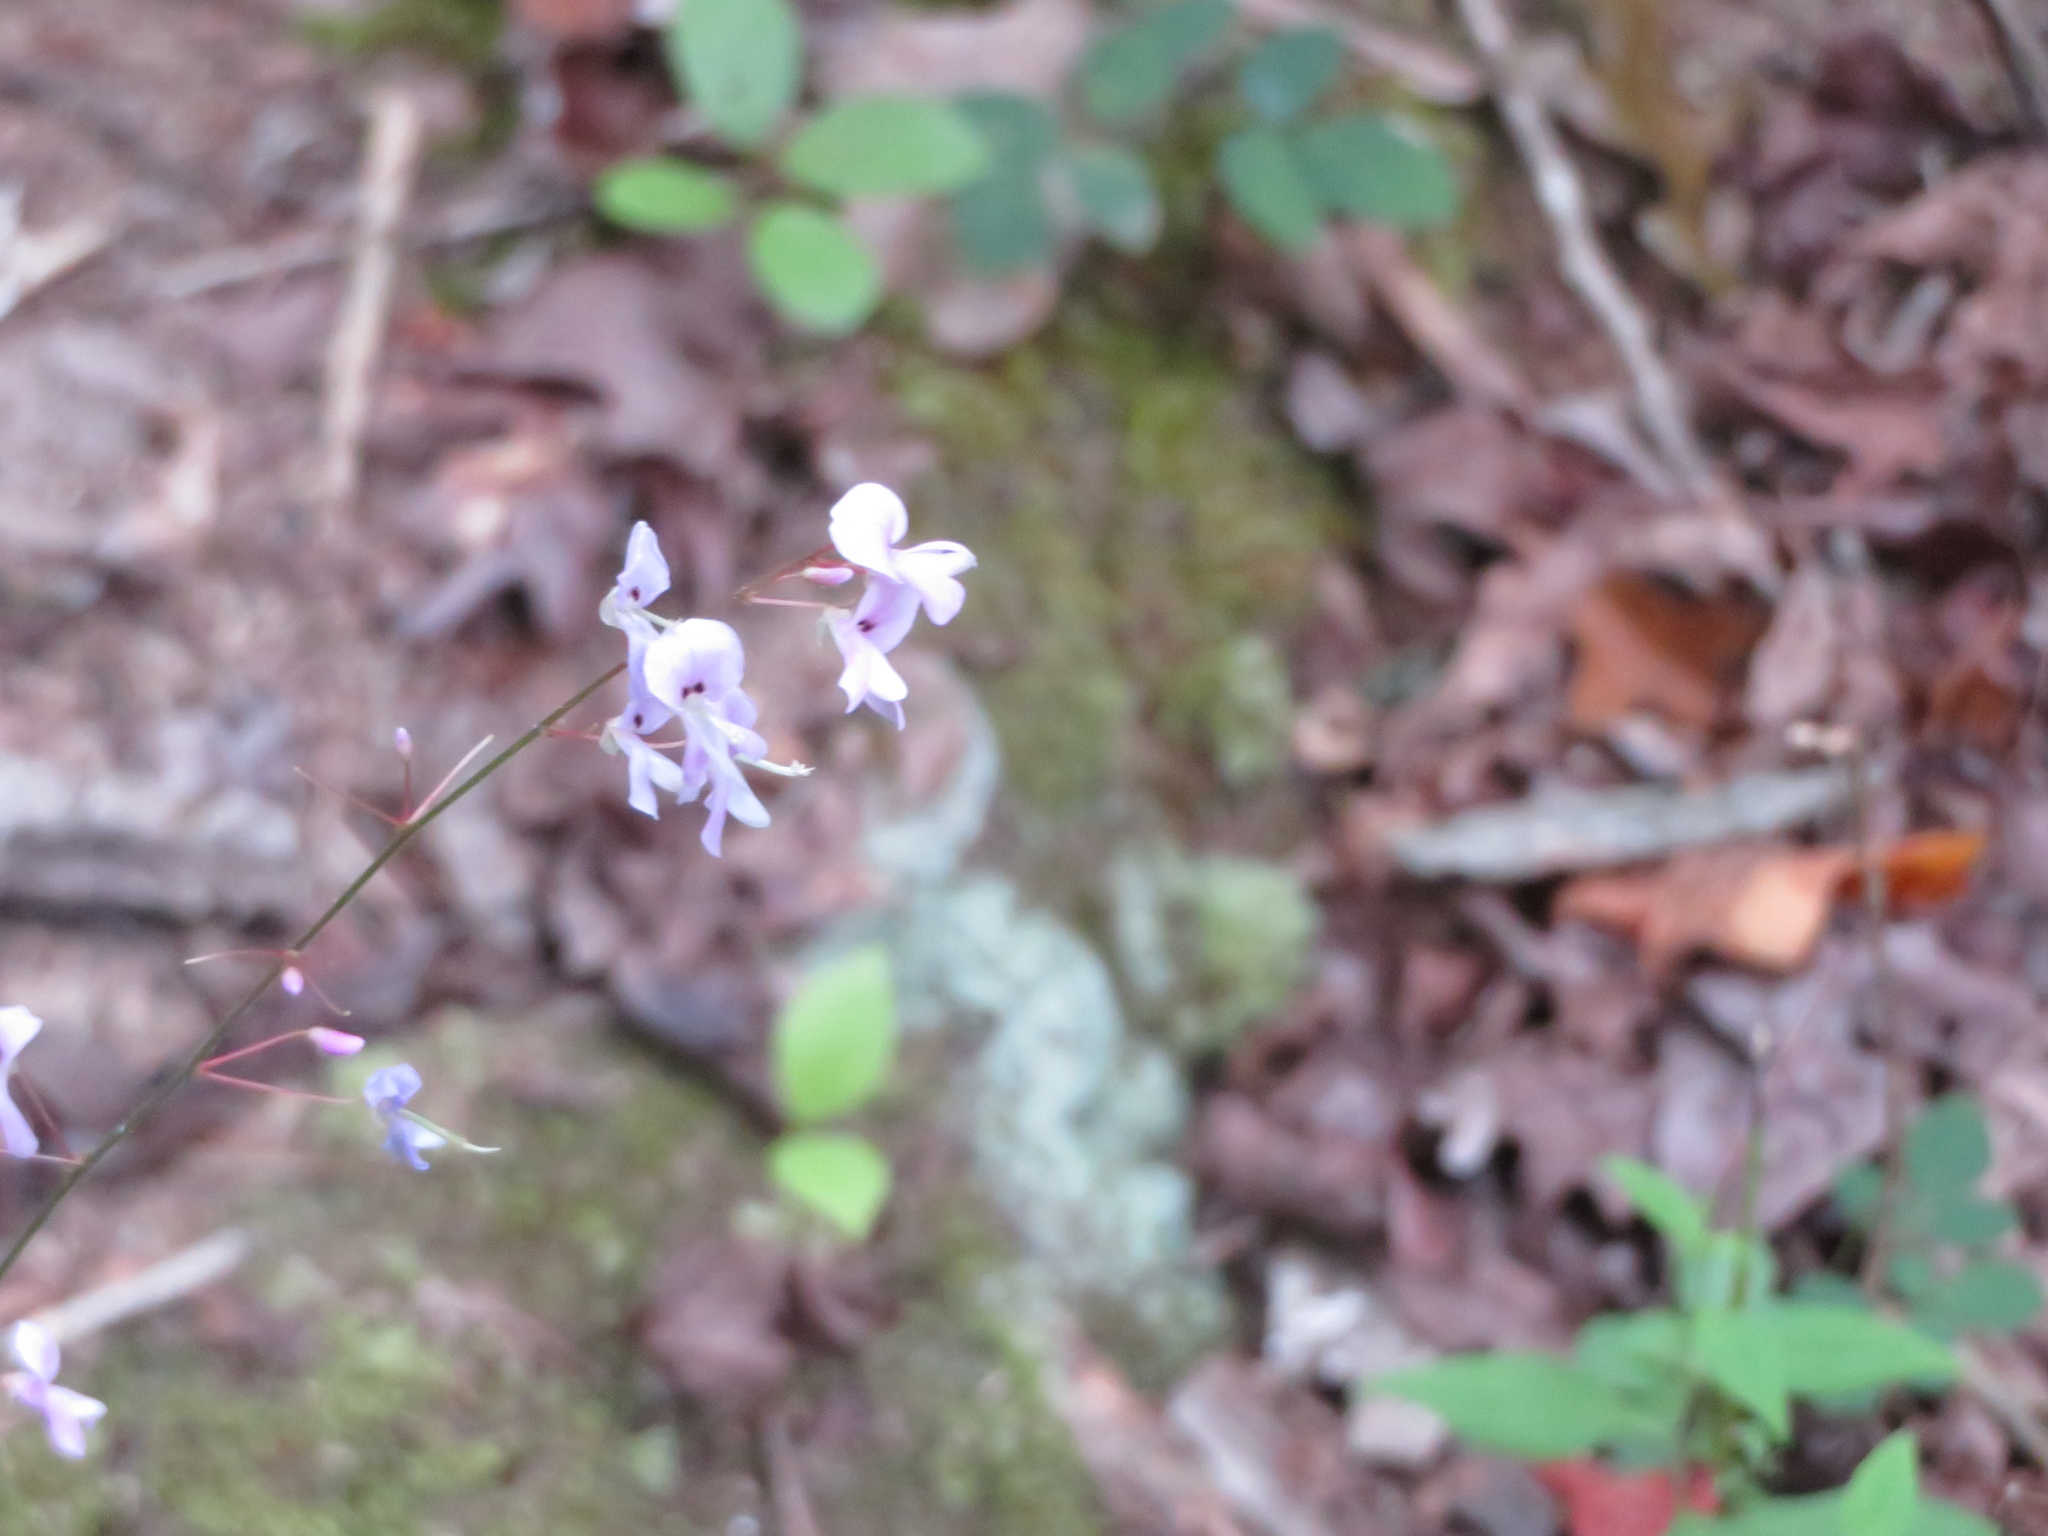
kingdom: Plantae
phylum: Tracheophyta
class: Magnoliopsida
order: Fabales
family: Fabaceae
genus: Hylodesmum
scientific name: Hylodesmum nudiflorum
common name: Bare-stemmed tick-trefoil
